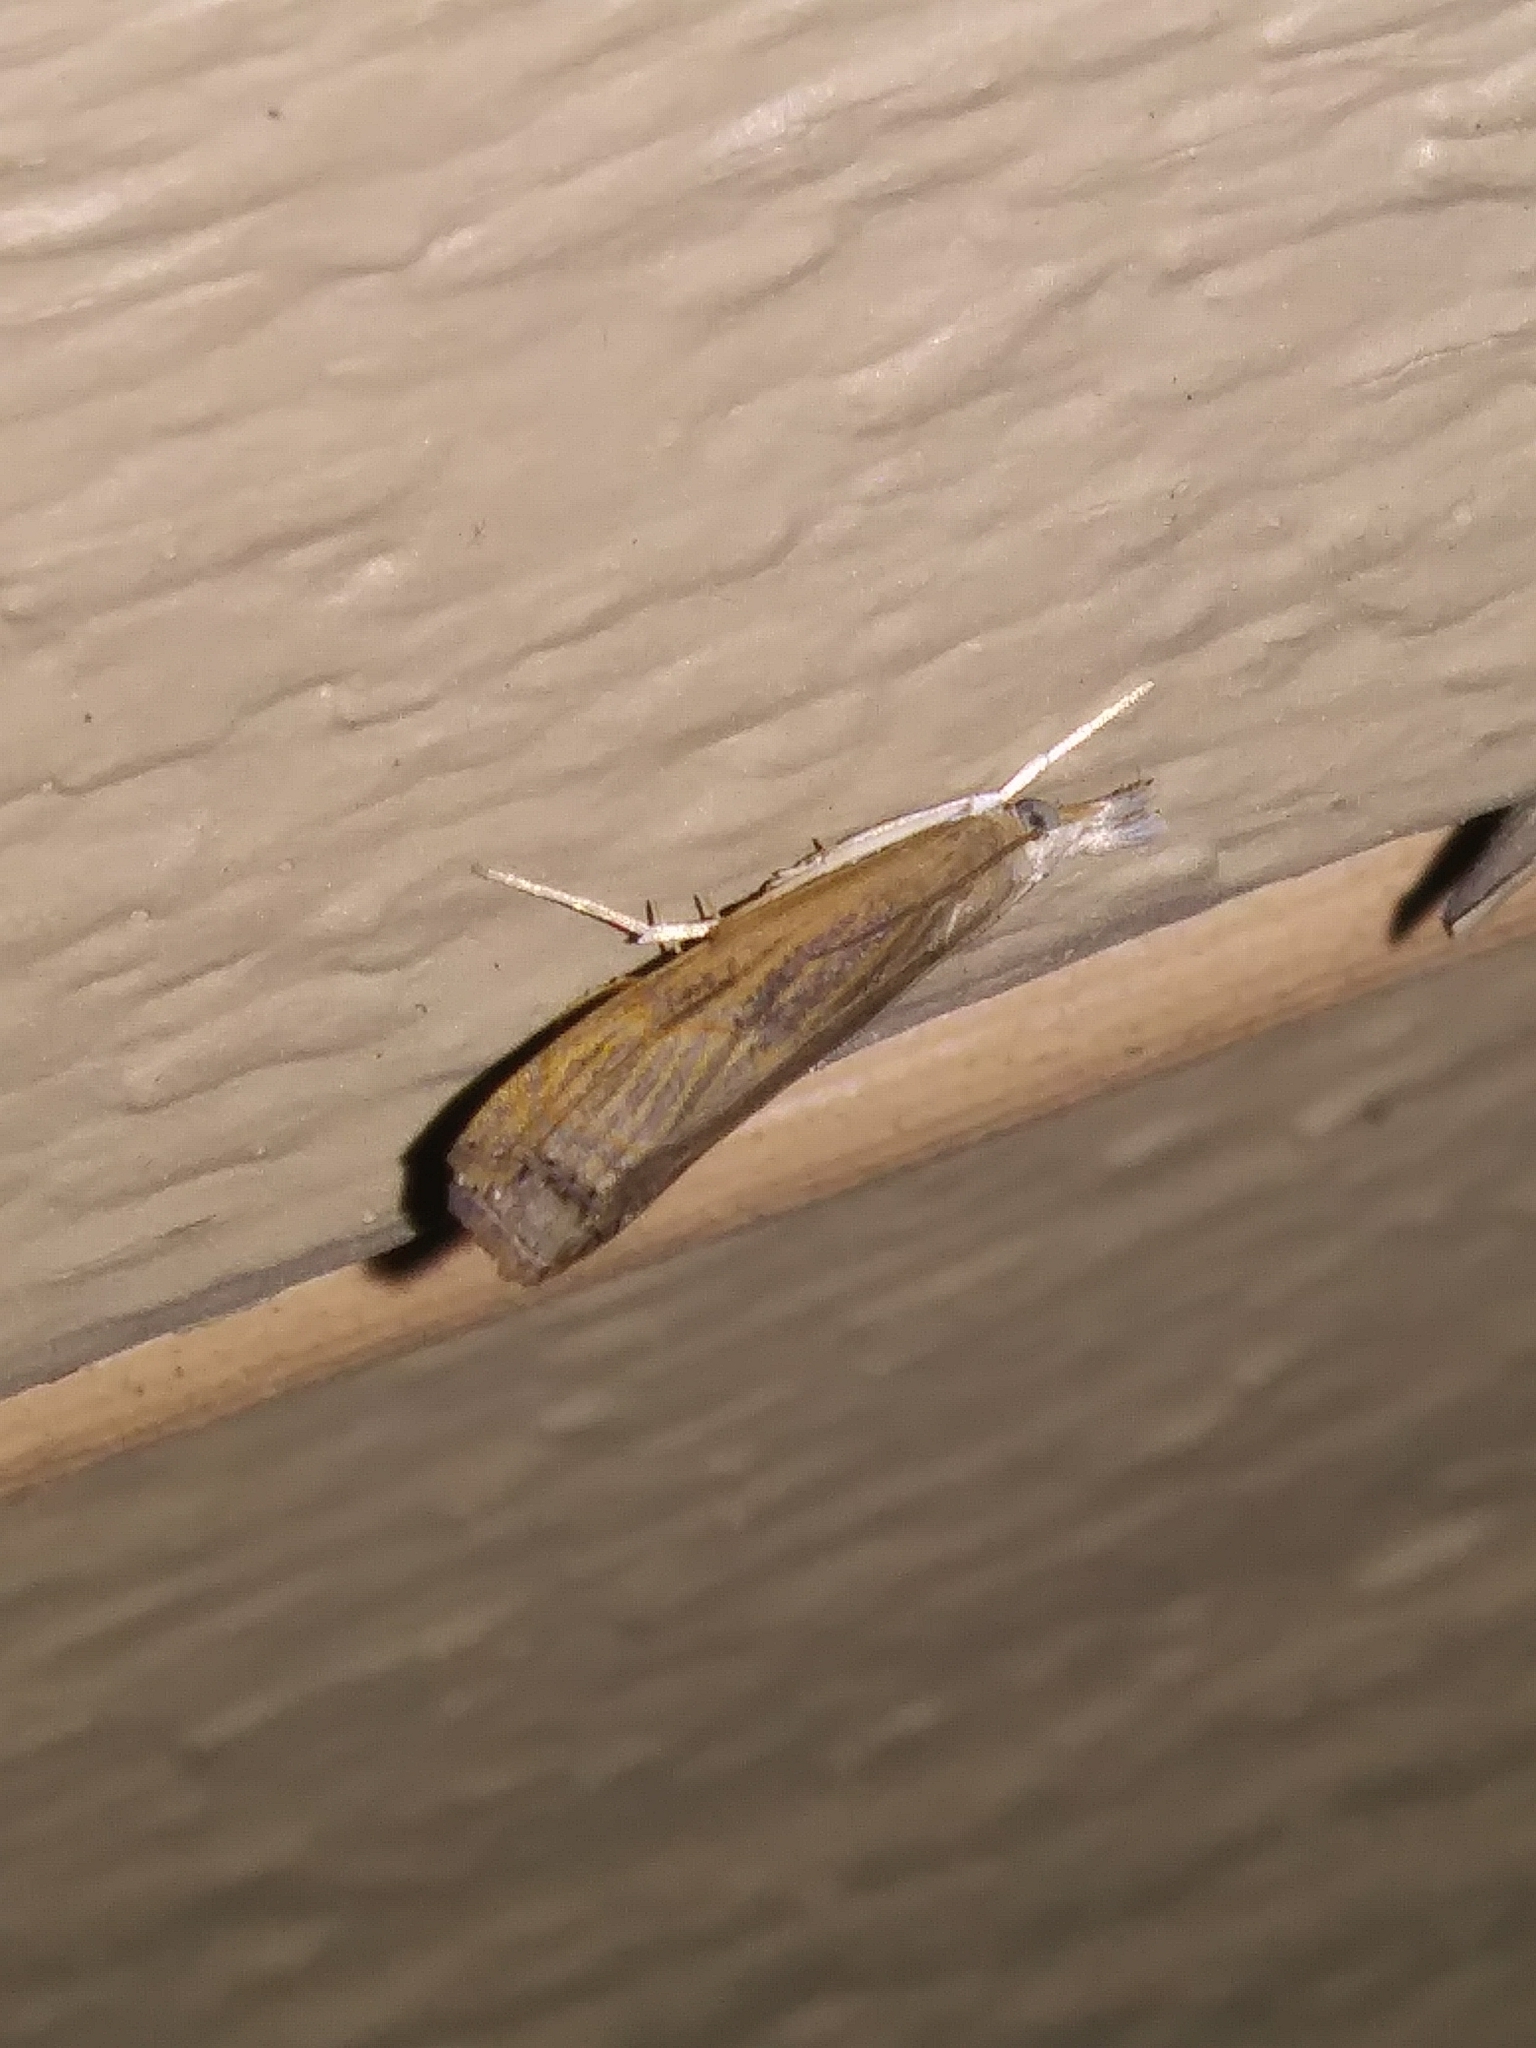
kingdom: Animalia
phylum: Arthropoda
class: Insecta
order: Lepidoptera
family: Crambidae
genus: Parapediasia
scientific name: Parapediasia teterellus
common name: Bluegrass webworm moth
